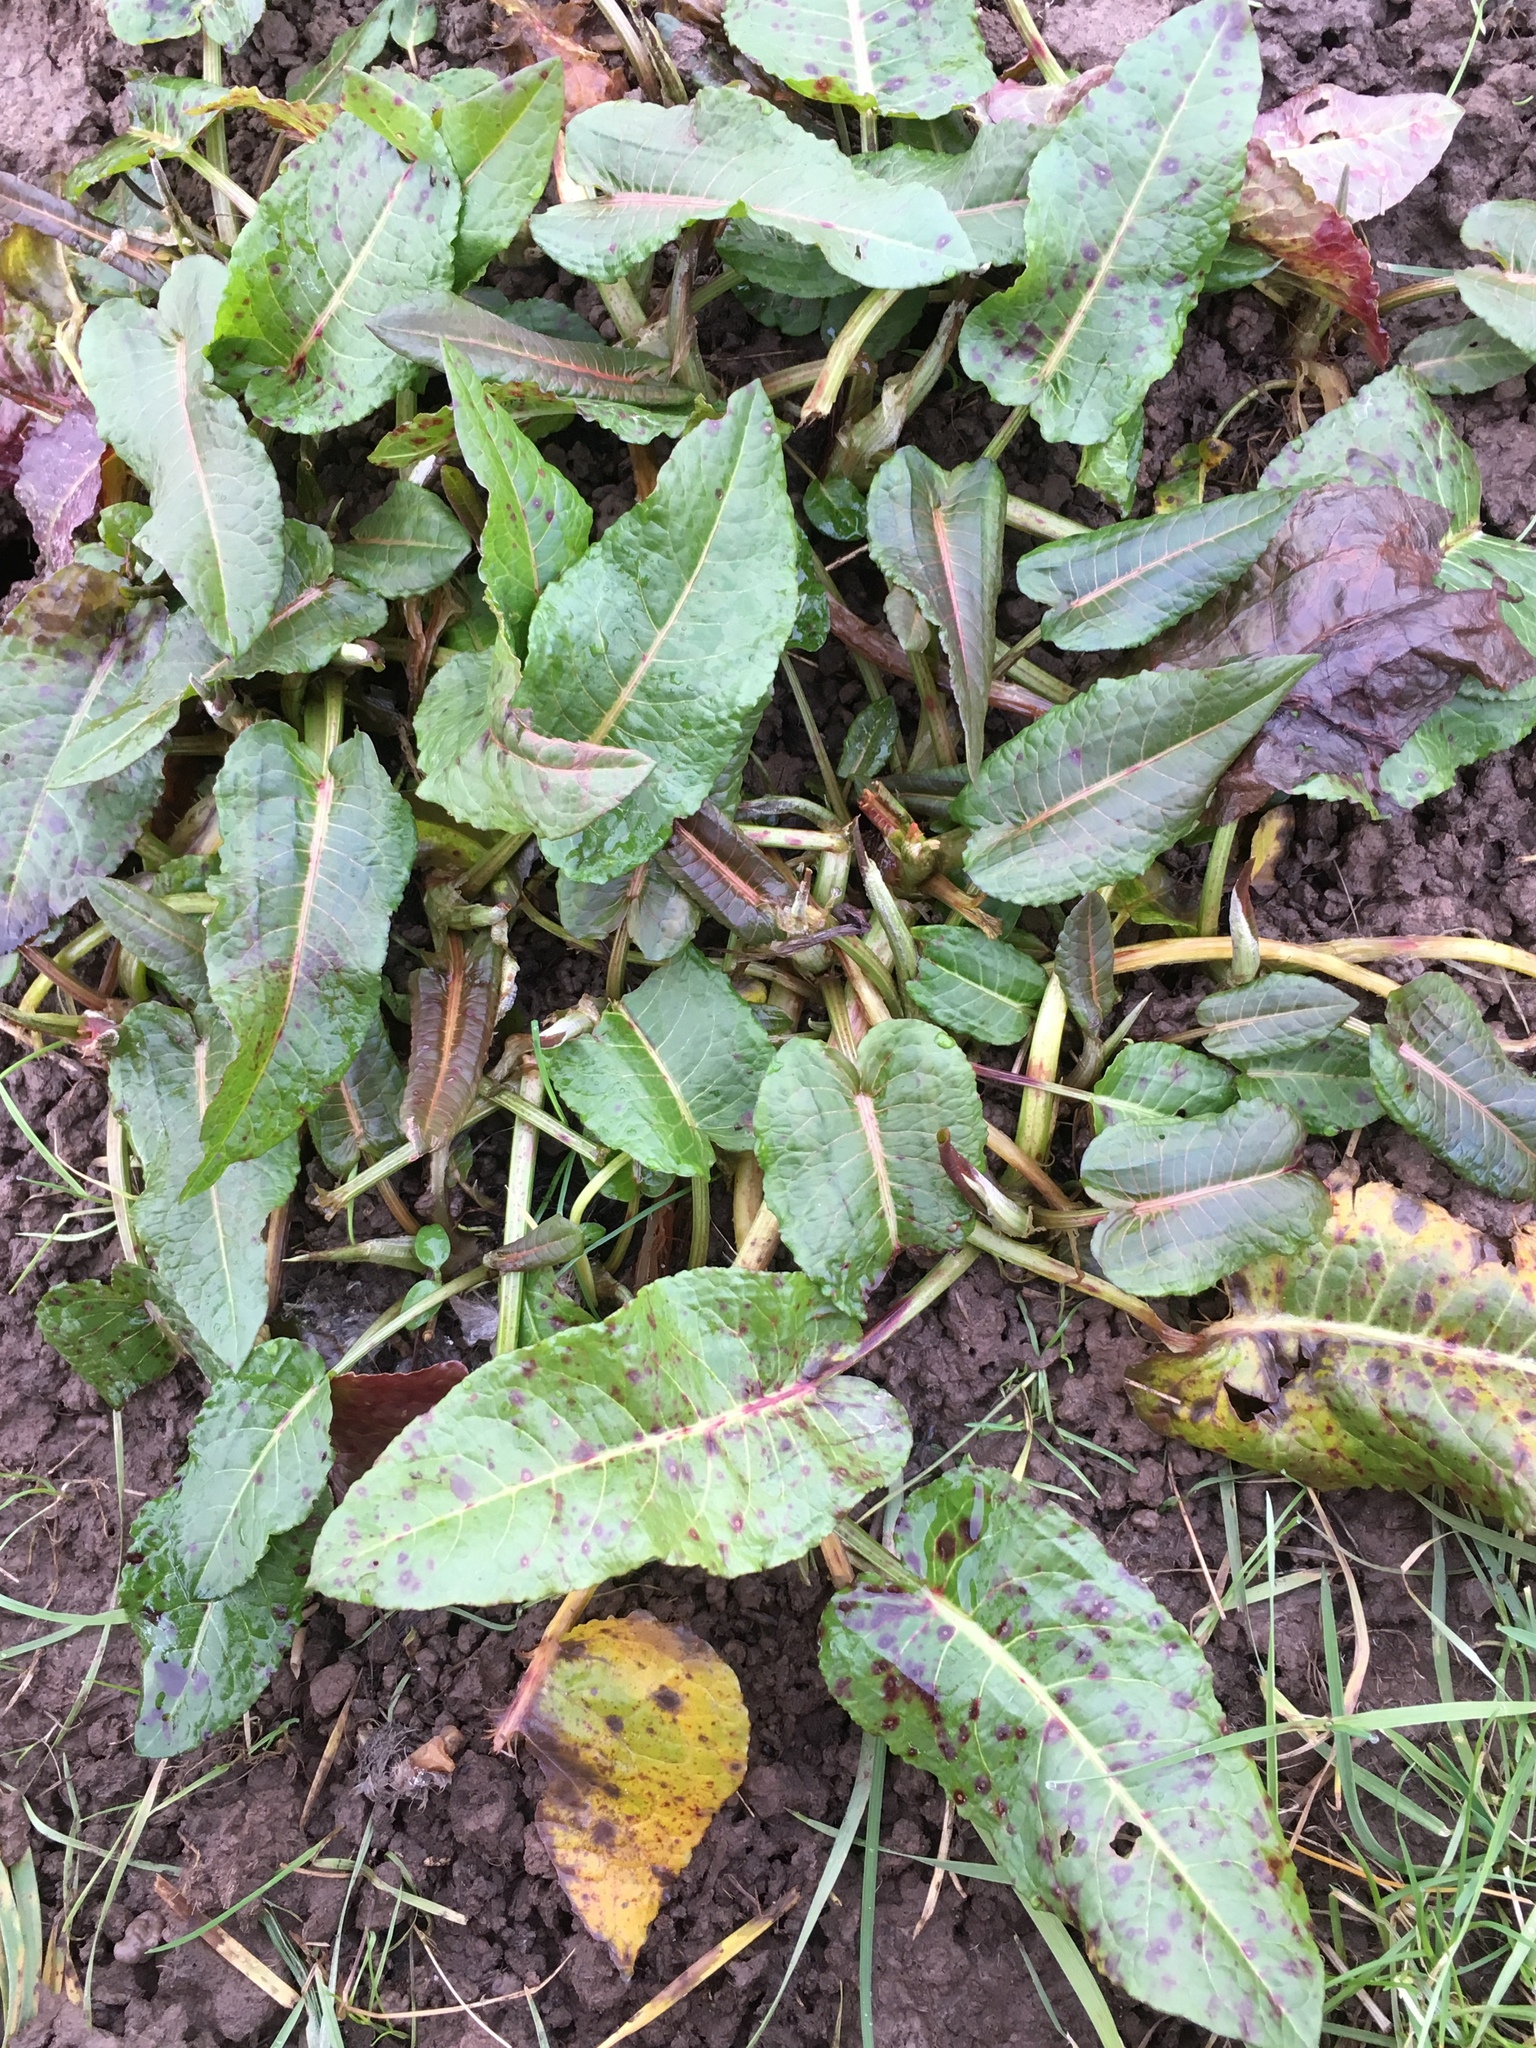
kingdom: Plantae
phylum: Tracheophyta
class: Magnoliopsida
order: Caryophyllales
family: Polygonaceae
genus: Rumex
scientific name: Rumex obtusifolius
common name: Bitter dock
